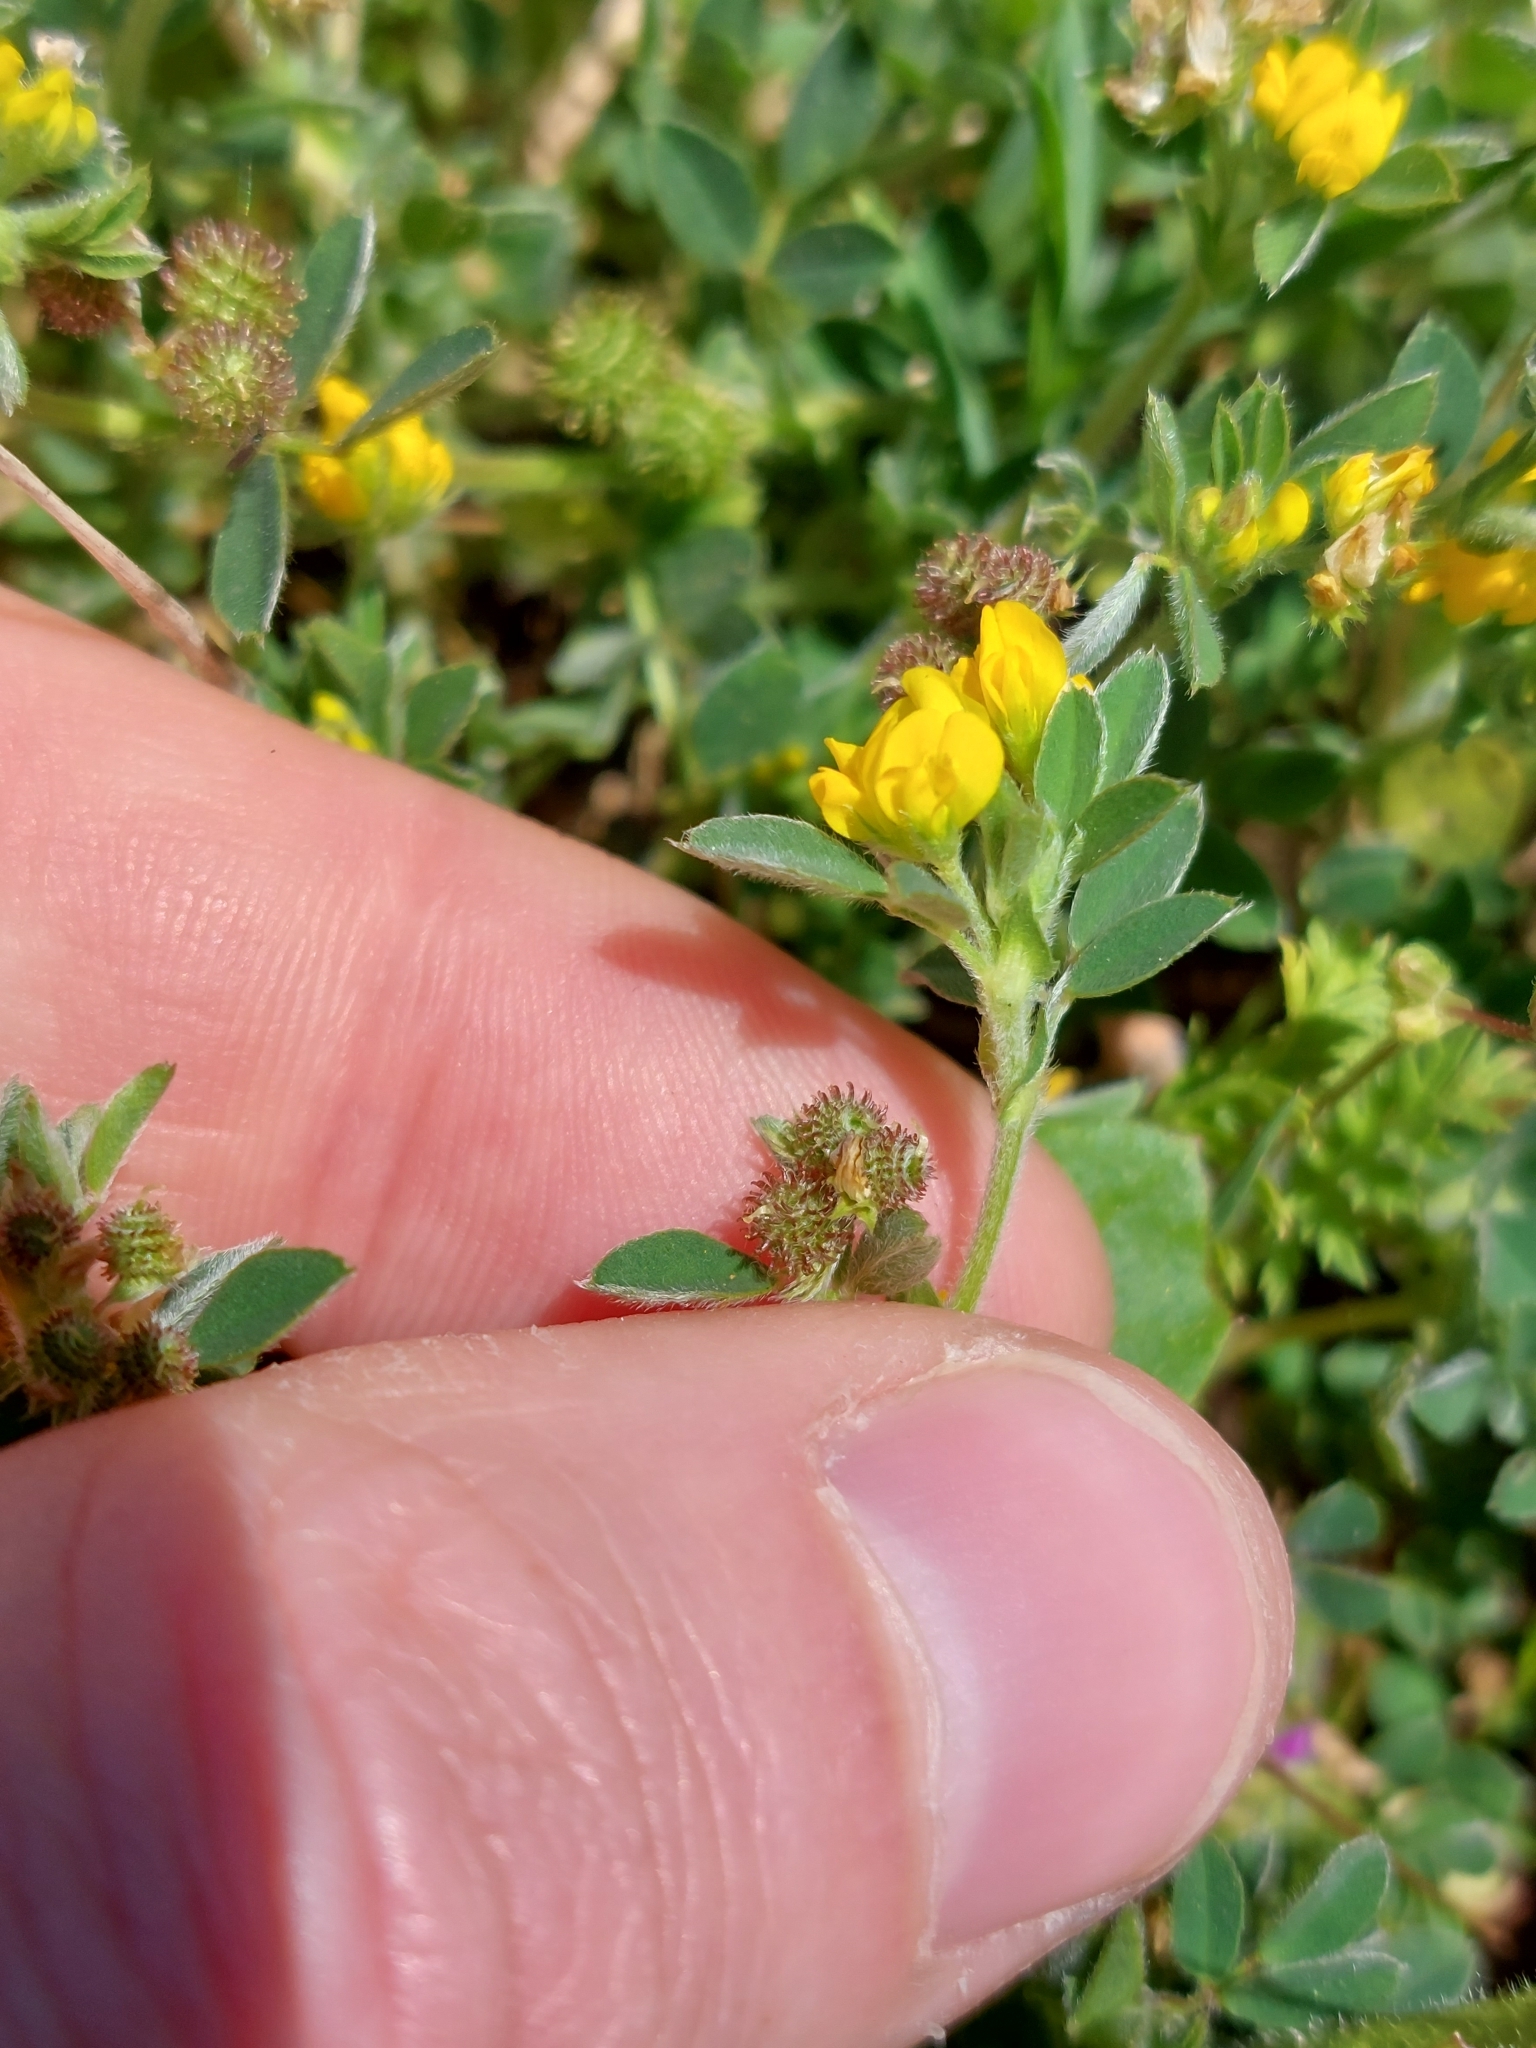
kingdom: Plantae
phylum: Tracheophyta
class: Magnoliopsida
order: Fabales
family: Fabaceae
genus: Medicago
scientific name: Medicago minima
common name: Little bur-clover
